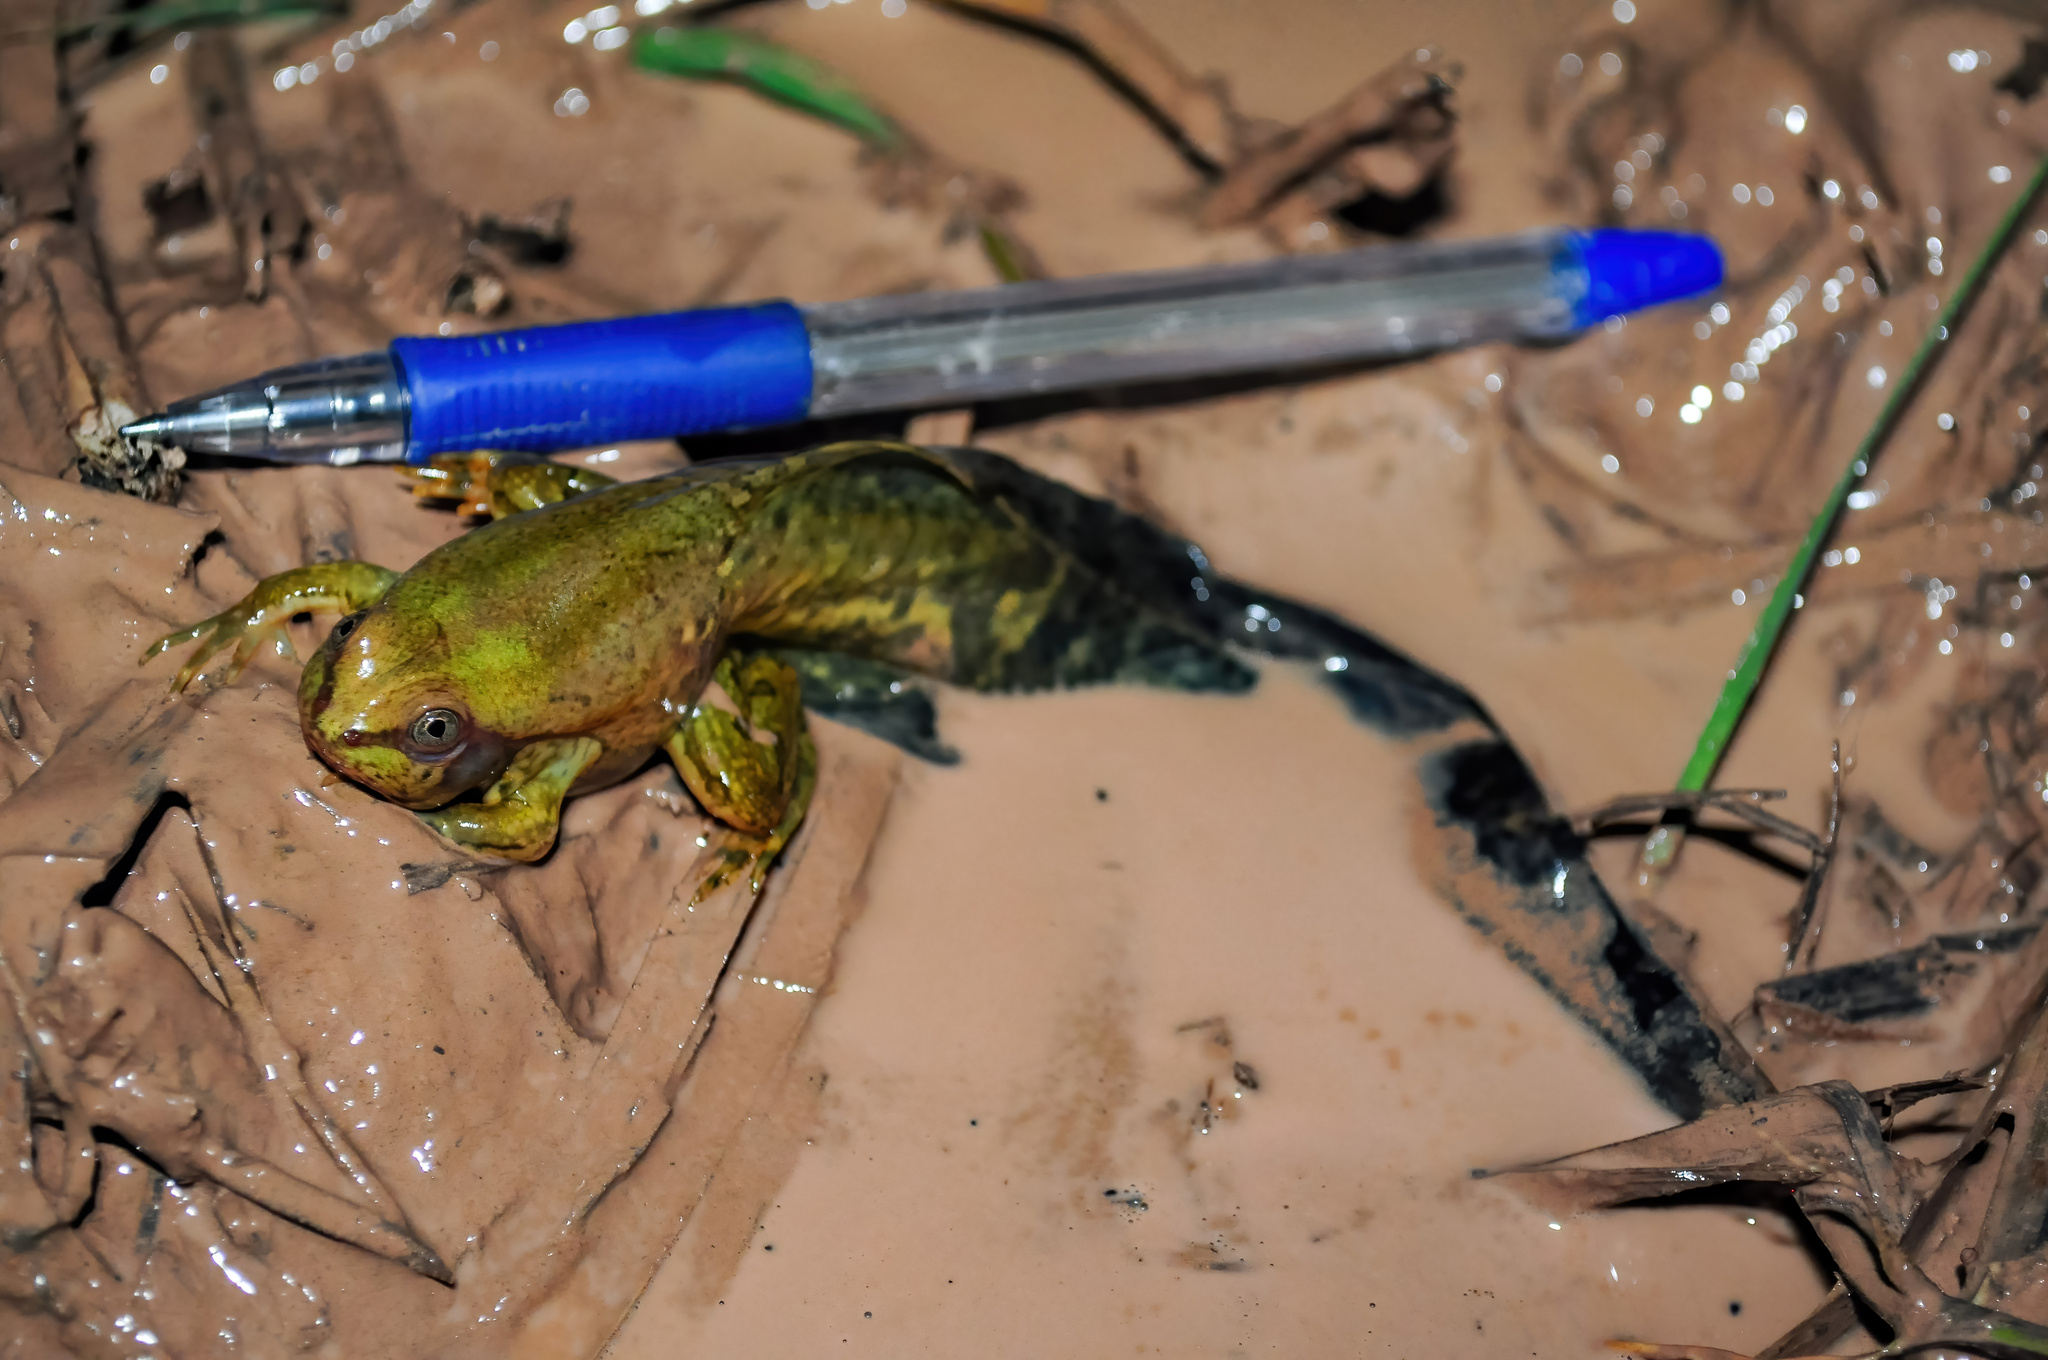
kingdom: Animalia
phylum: Chordata
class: Amphibia
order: Anura
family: Hylidae
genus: Pseudis
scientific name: Pseudis platensis
